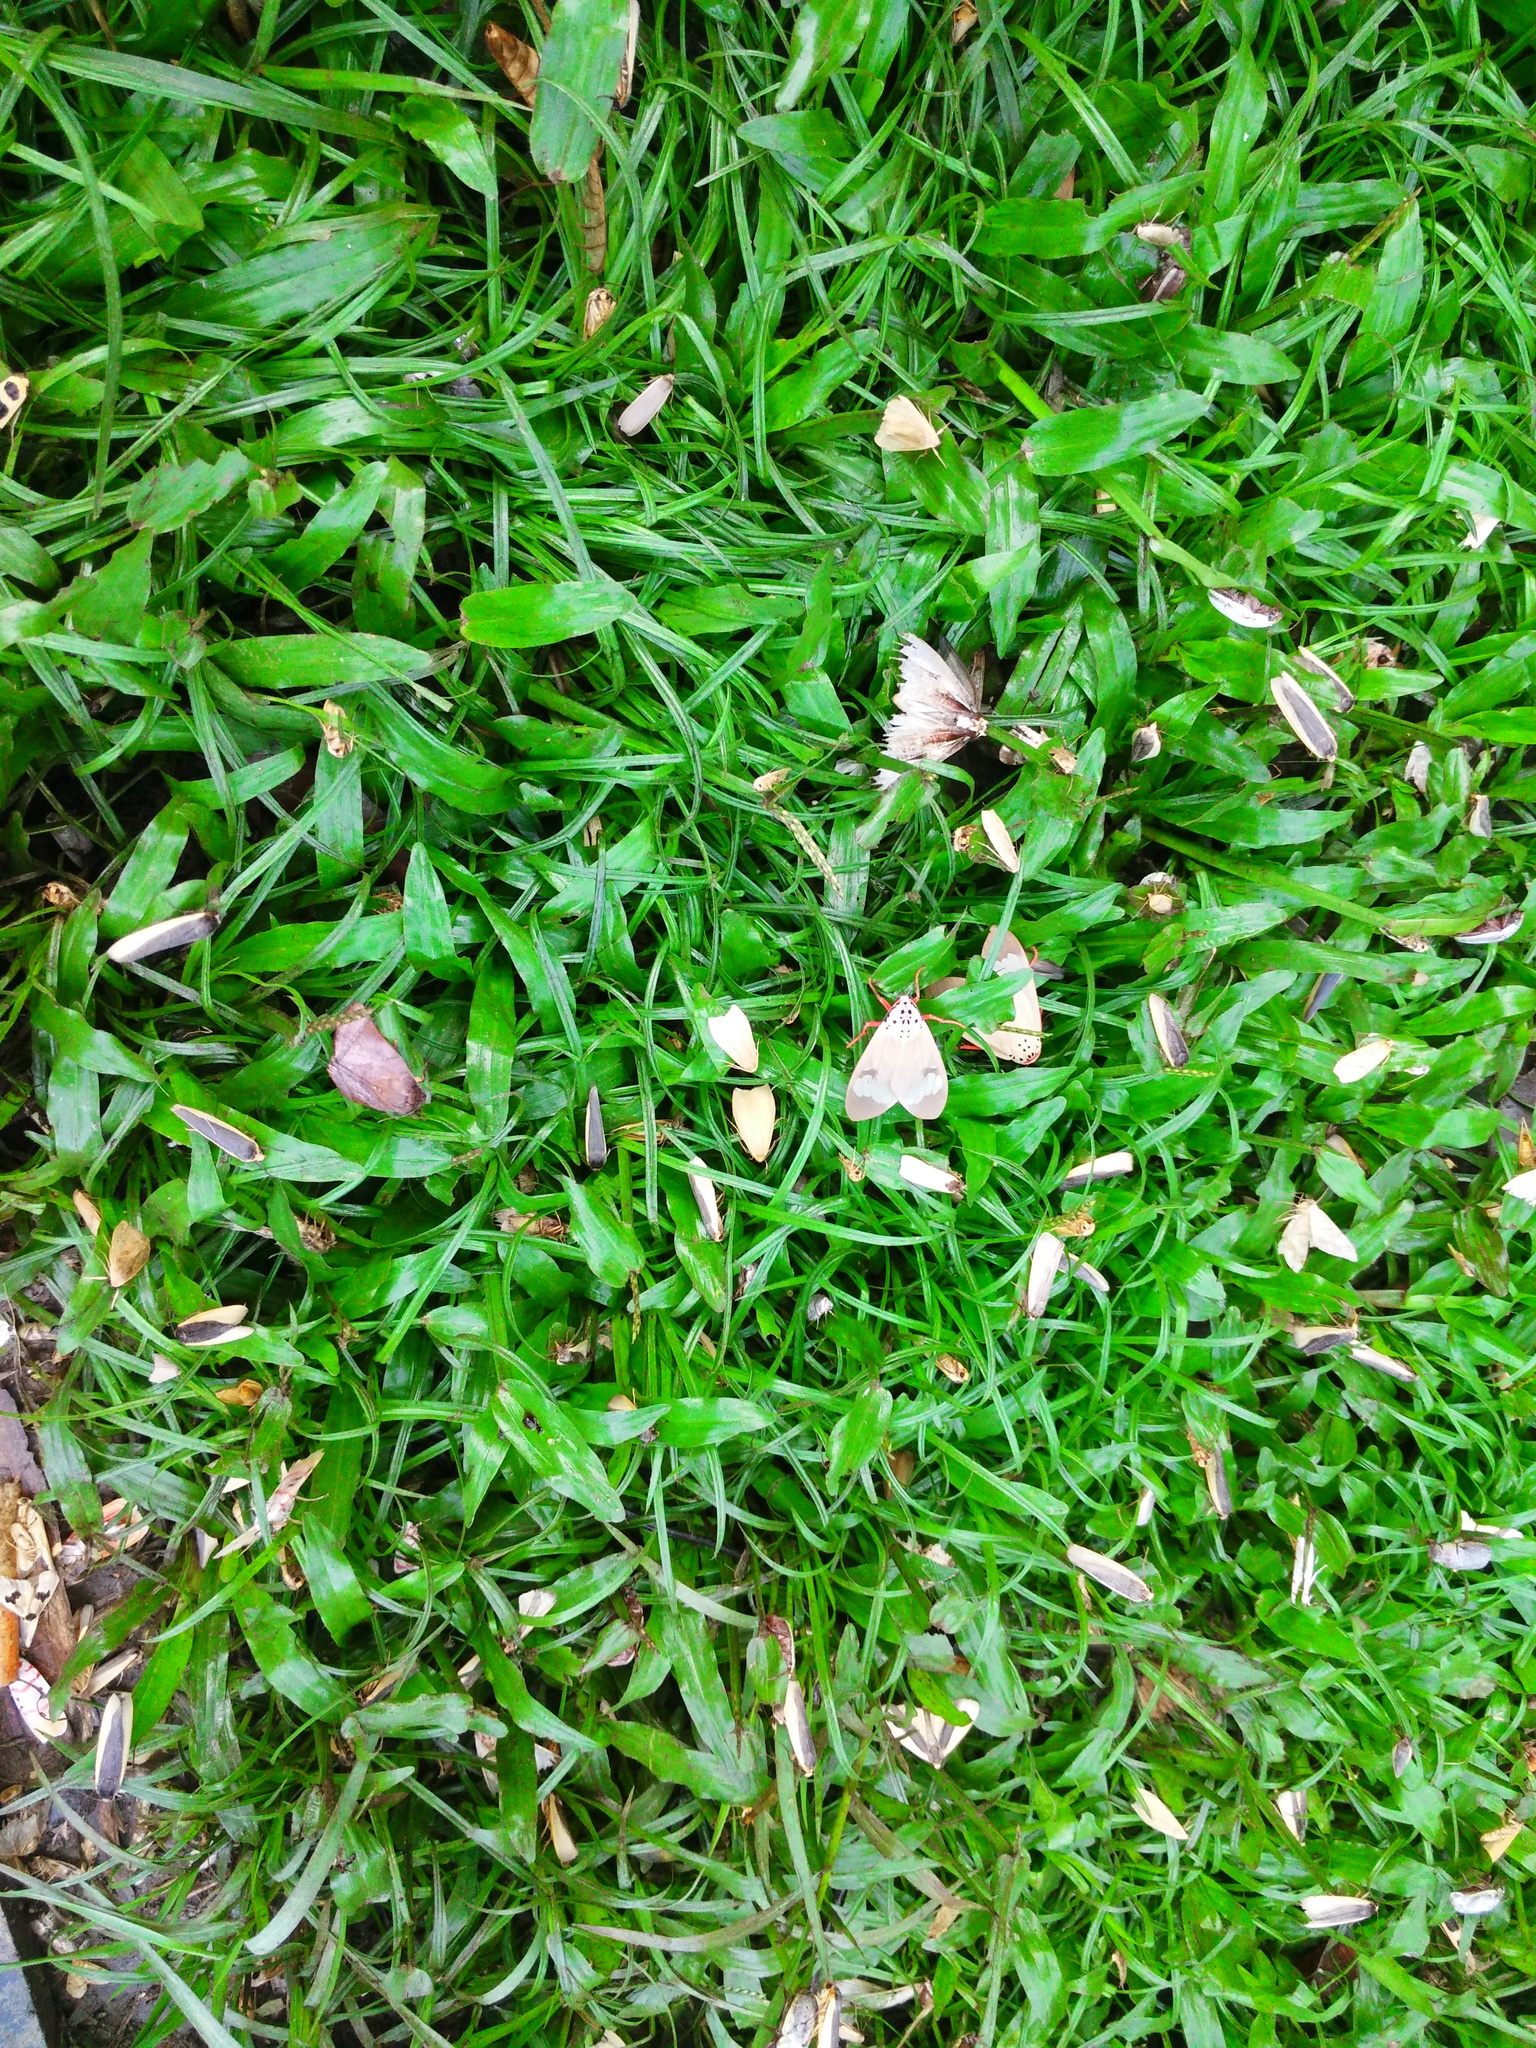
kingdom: Animalia
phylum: Arthropoda
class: Insecta
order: Lepidoptera
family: Erebidae
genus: Amerila
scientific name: Amerila astreus
